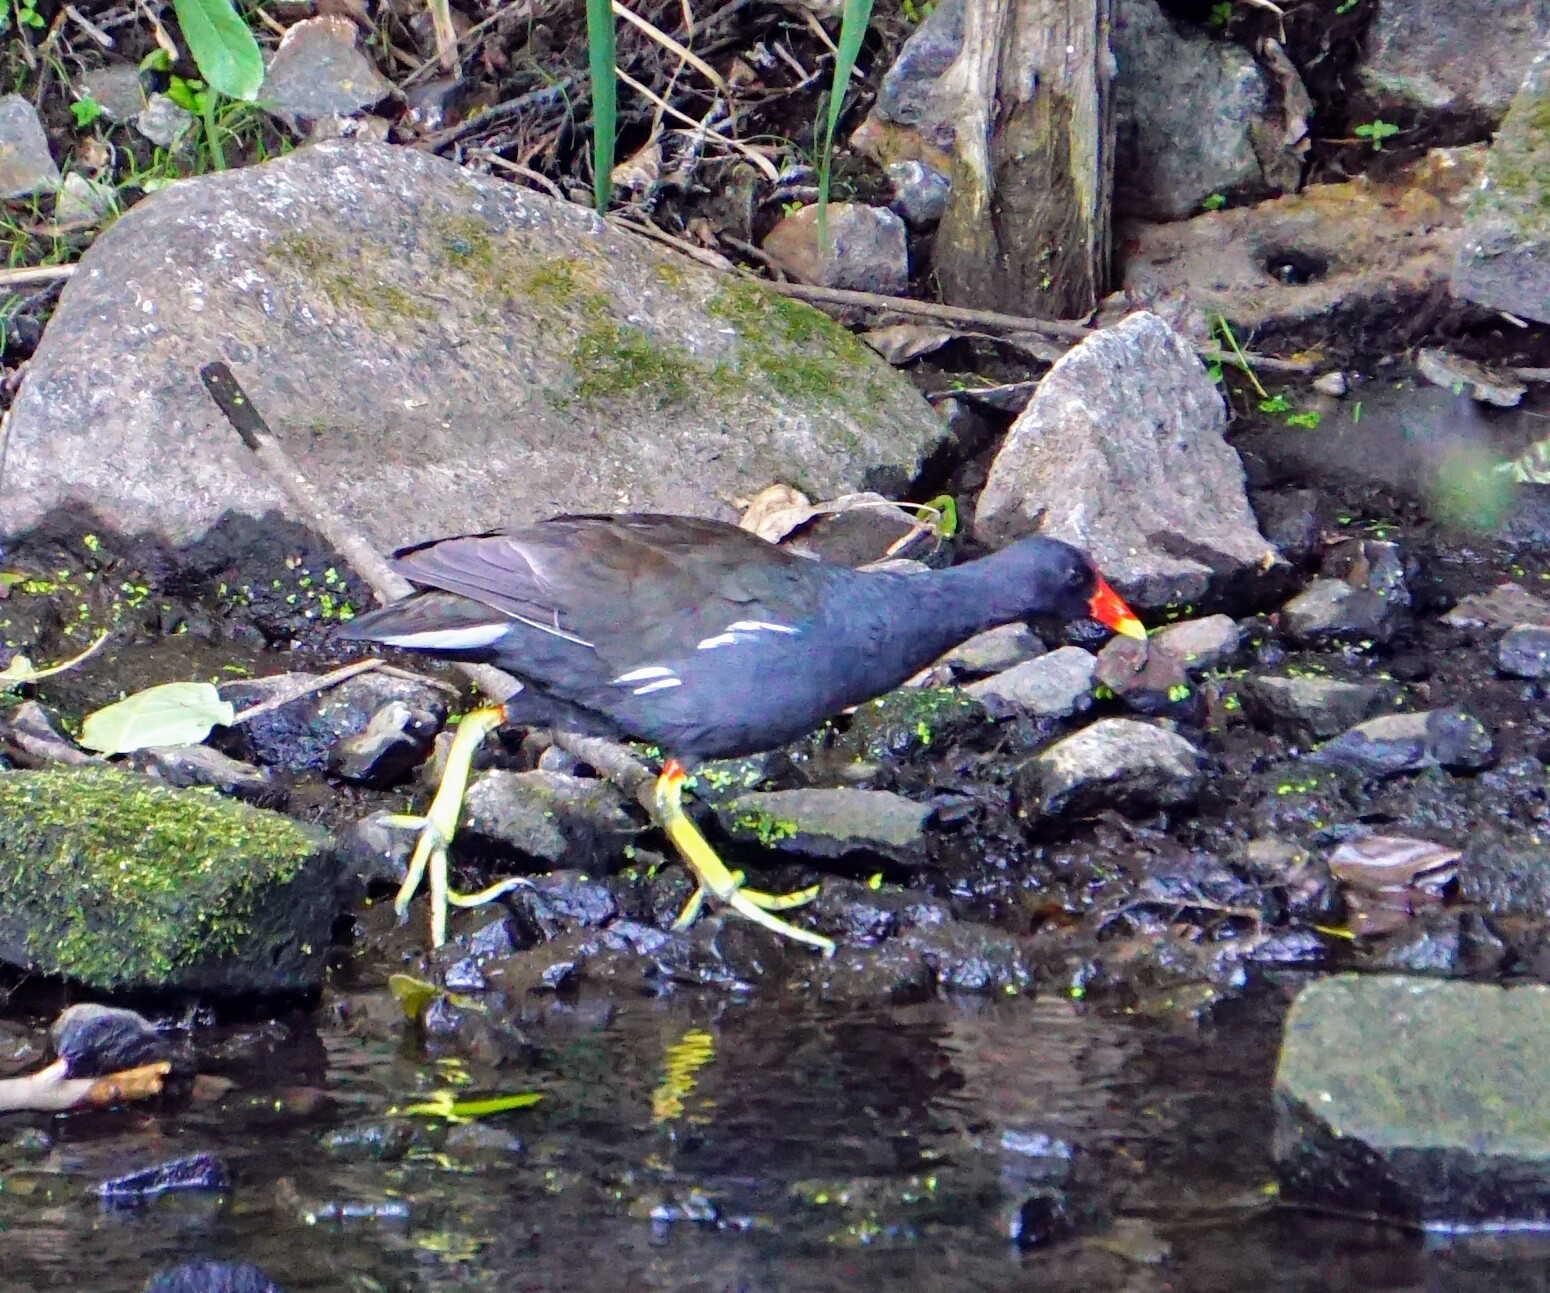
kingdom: Animalia
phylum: Chordata
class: Aves
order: Gruiformes
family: Rallidae
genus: Gallinula
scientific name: Gallinula chloropus
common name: Common moorhen
